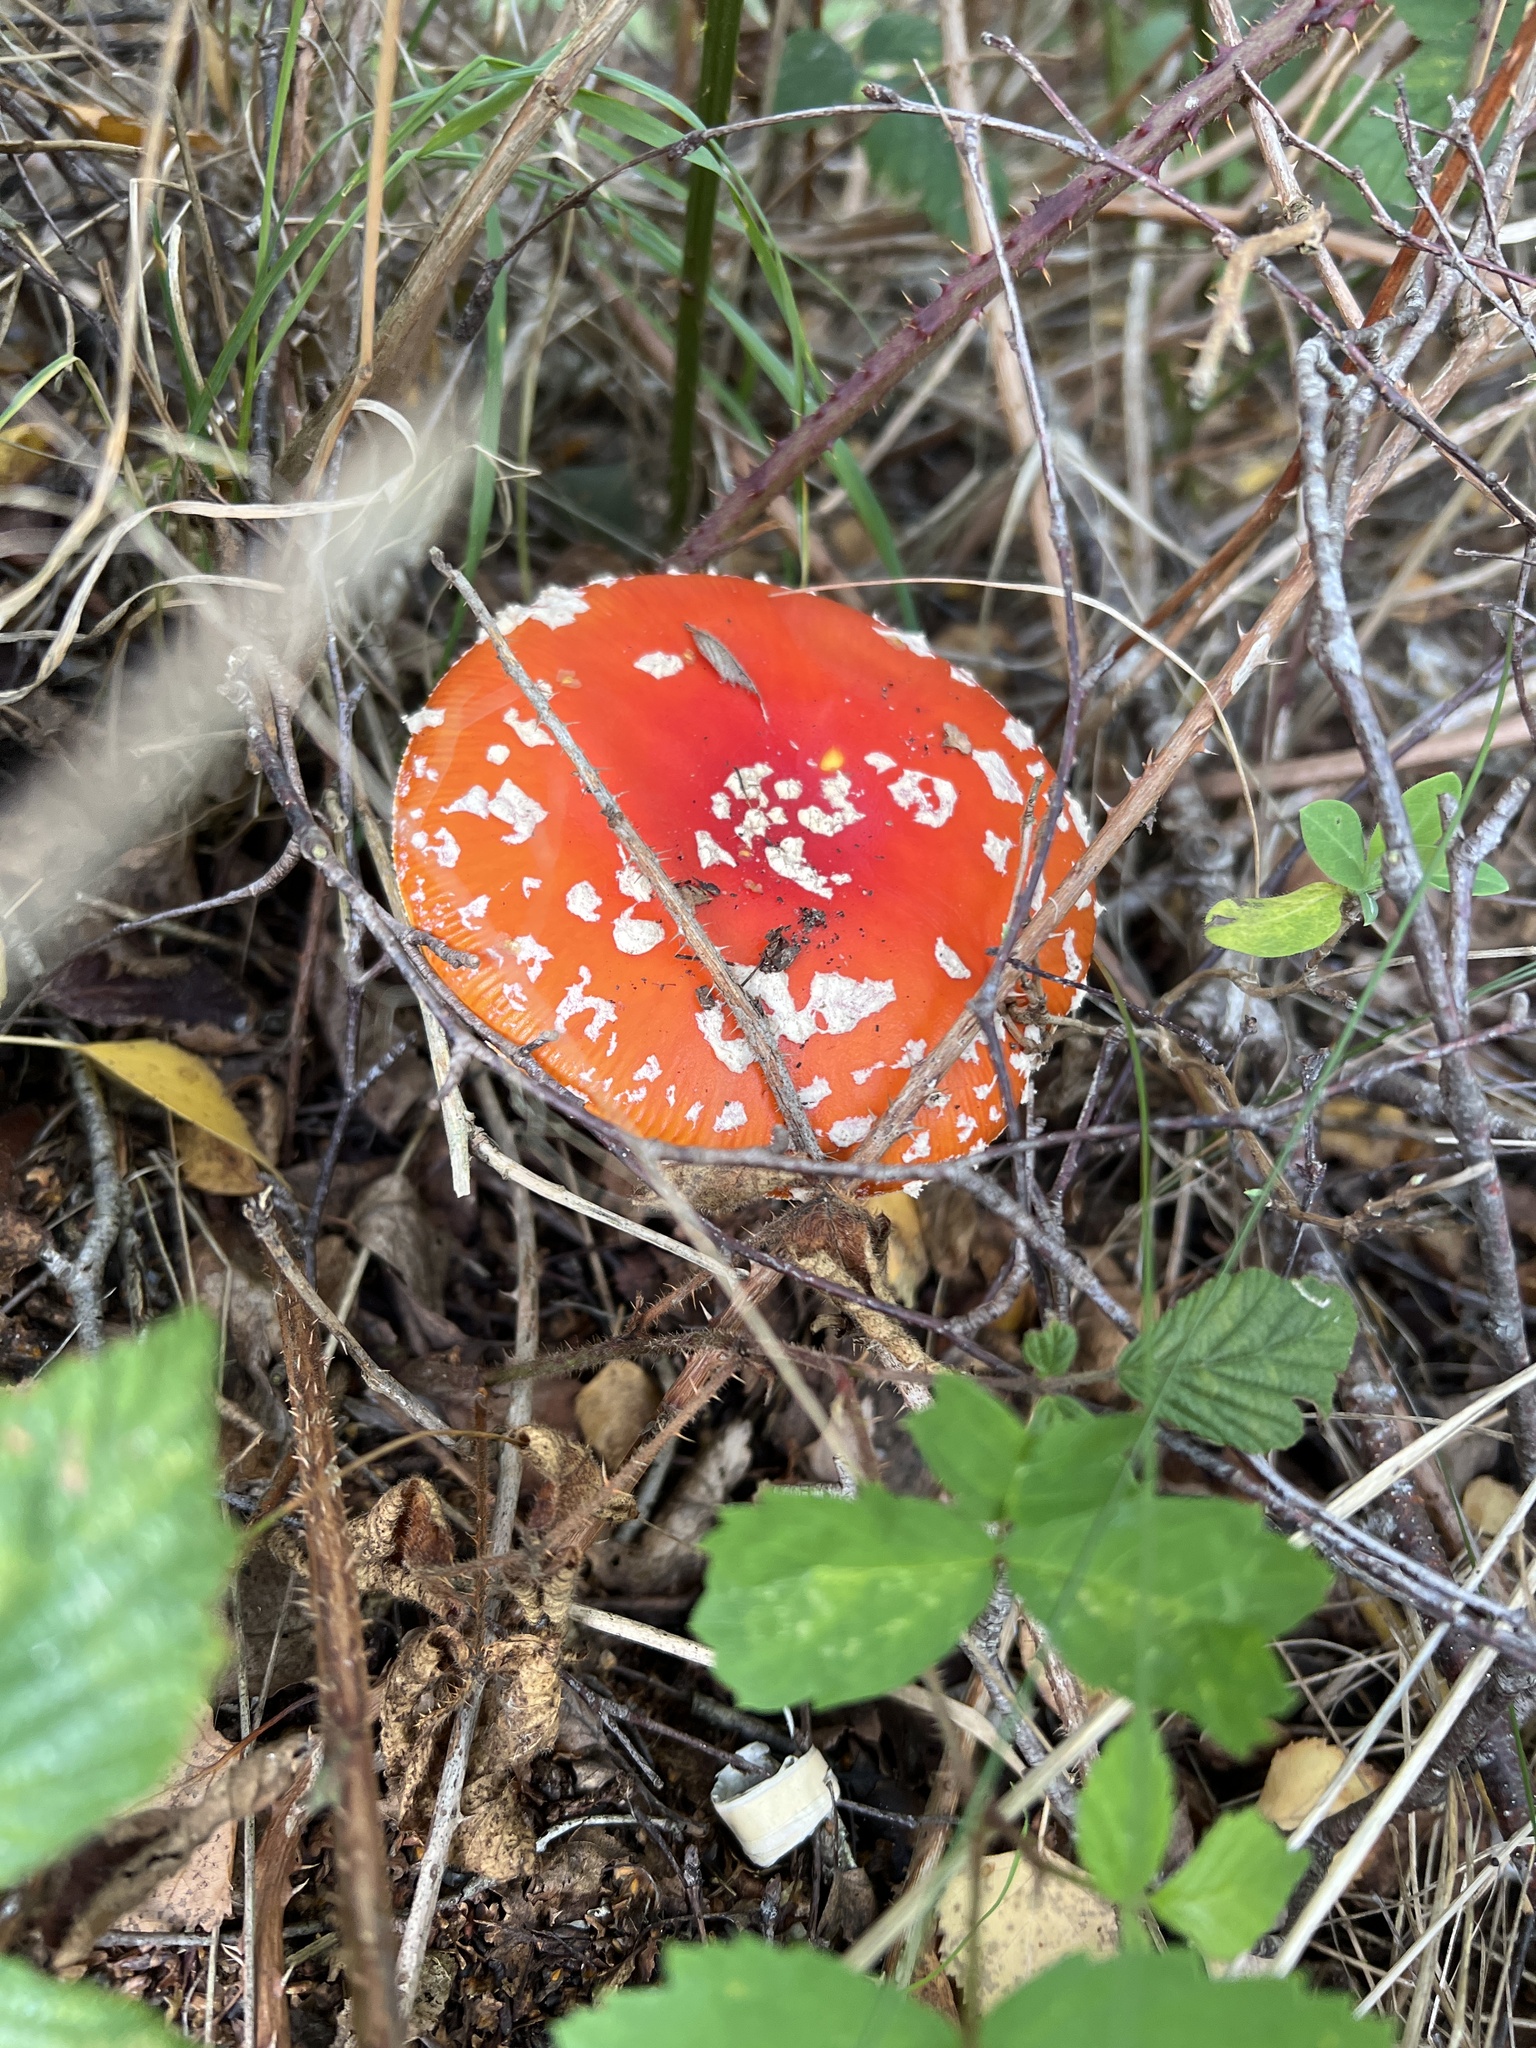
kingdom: Fungi
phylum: Basidiomycota
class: Agaricomycetes
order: Agaricales
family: Amanitaceae
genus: Amanita
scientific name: Amanita muscaria
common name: Fly agaric
